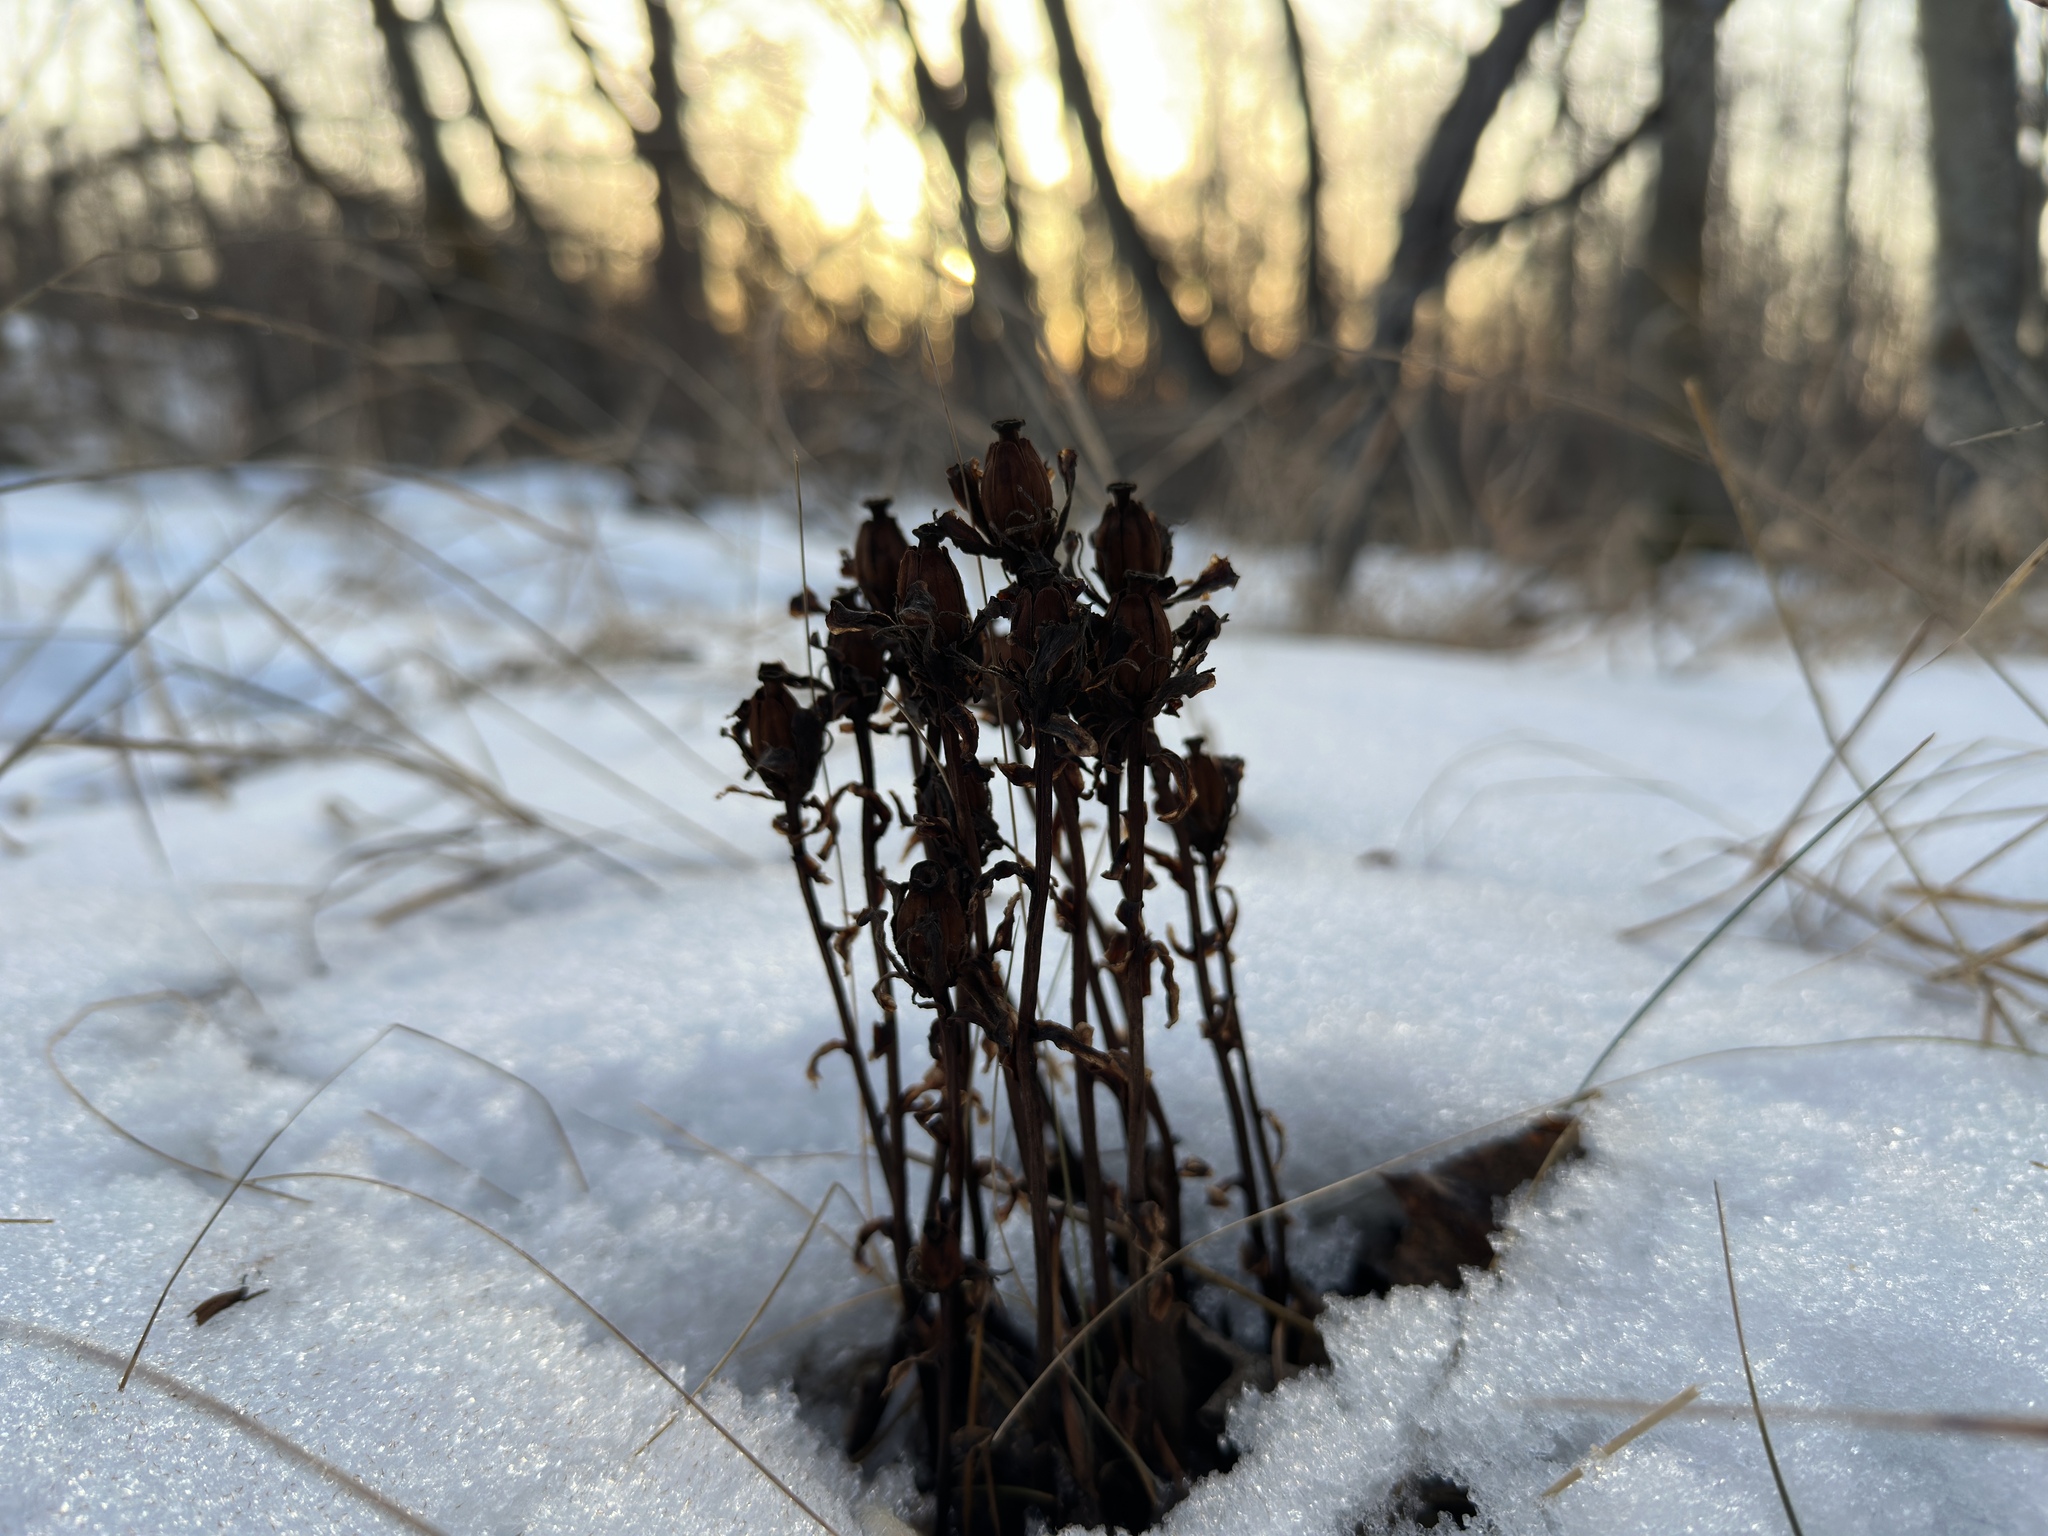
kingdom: Plantae
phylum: Tracheophyta
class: Magnoliopsida
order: Ericales
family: Ericaceae
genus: Monotropa
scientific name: Monotropa uniflora
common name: Convulsion root
